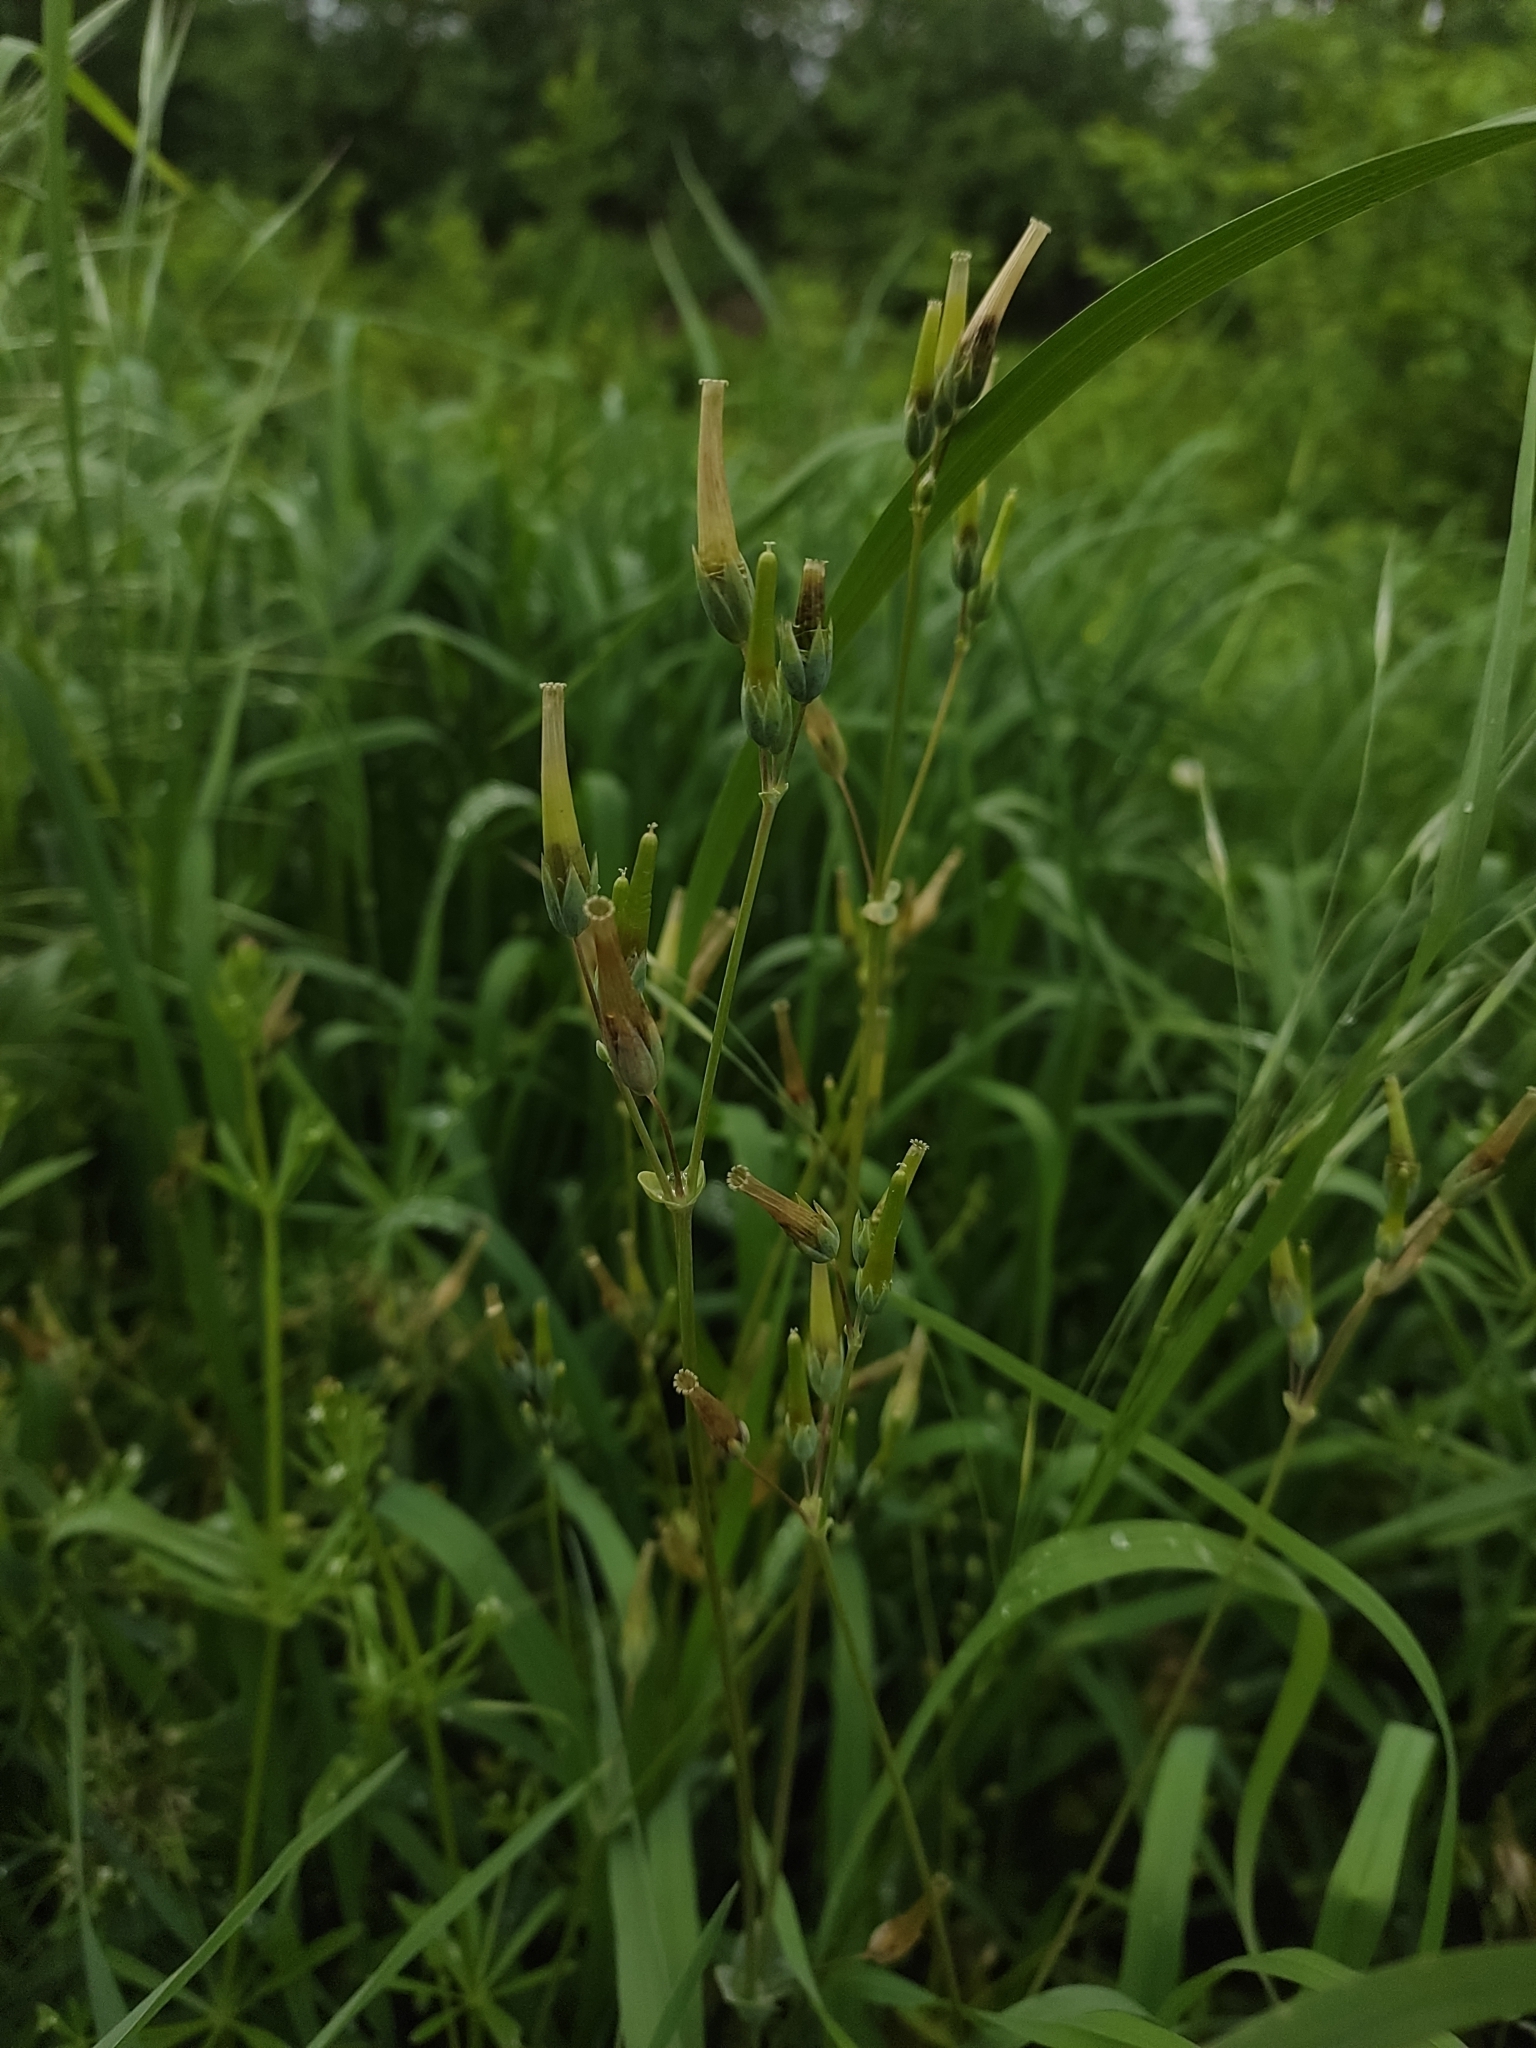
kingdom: Plantae
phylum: Tracheophyta
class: Magnoliopsida
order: Caryophyllales
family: Caryophyllaceae
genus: Cerastium
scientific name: Cerastium nemorale
